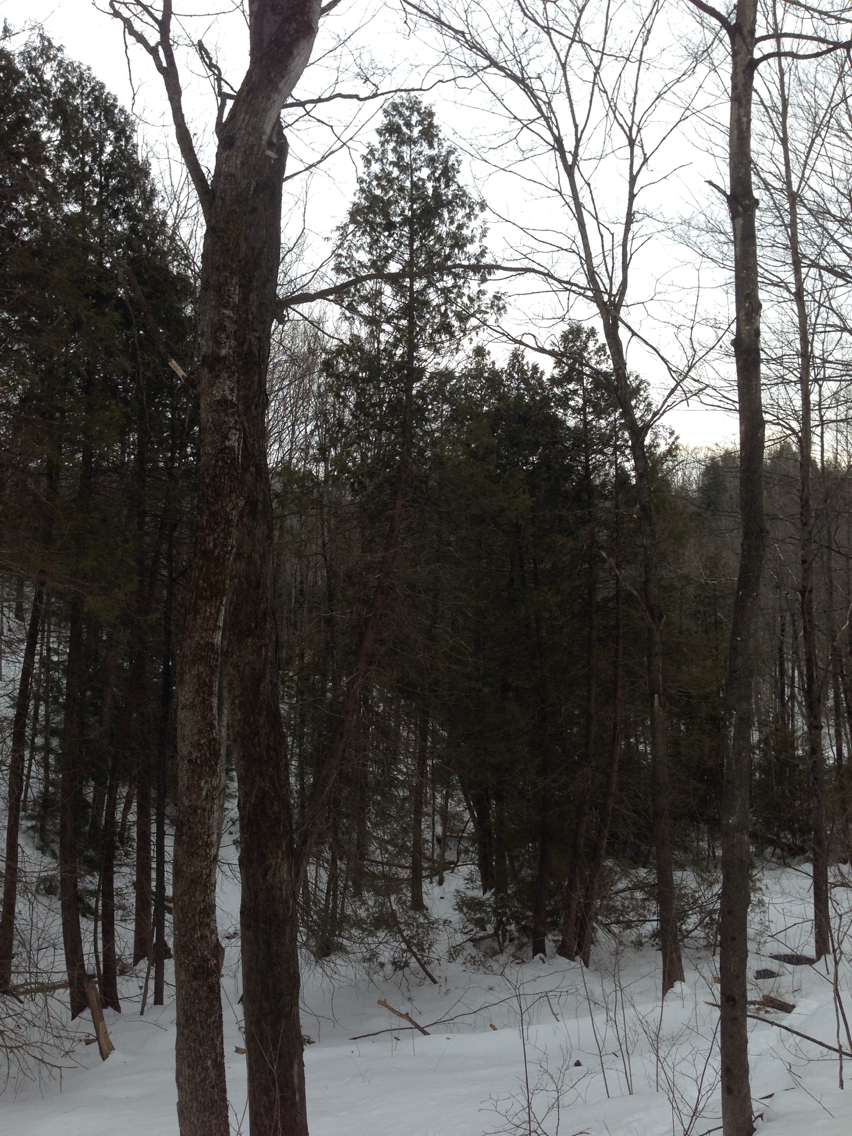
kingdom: Plantae
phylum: Tracheophyta
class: Pinopsida
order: Pinales
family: Cupressaceae
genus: Thuja
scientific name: Thuja occidentalis
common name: Northern white-cedar
